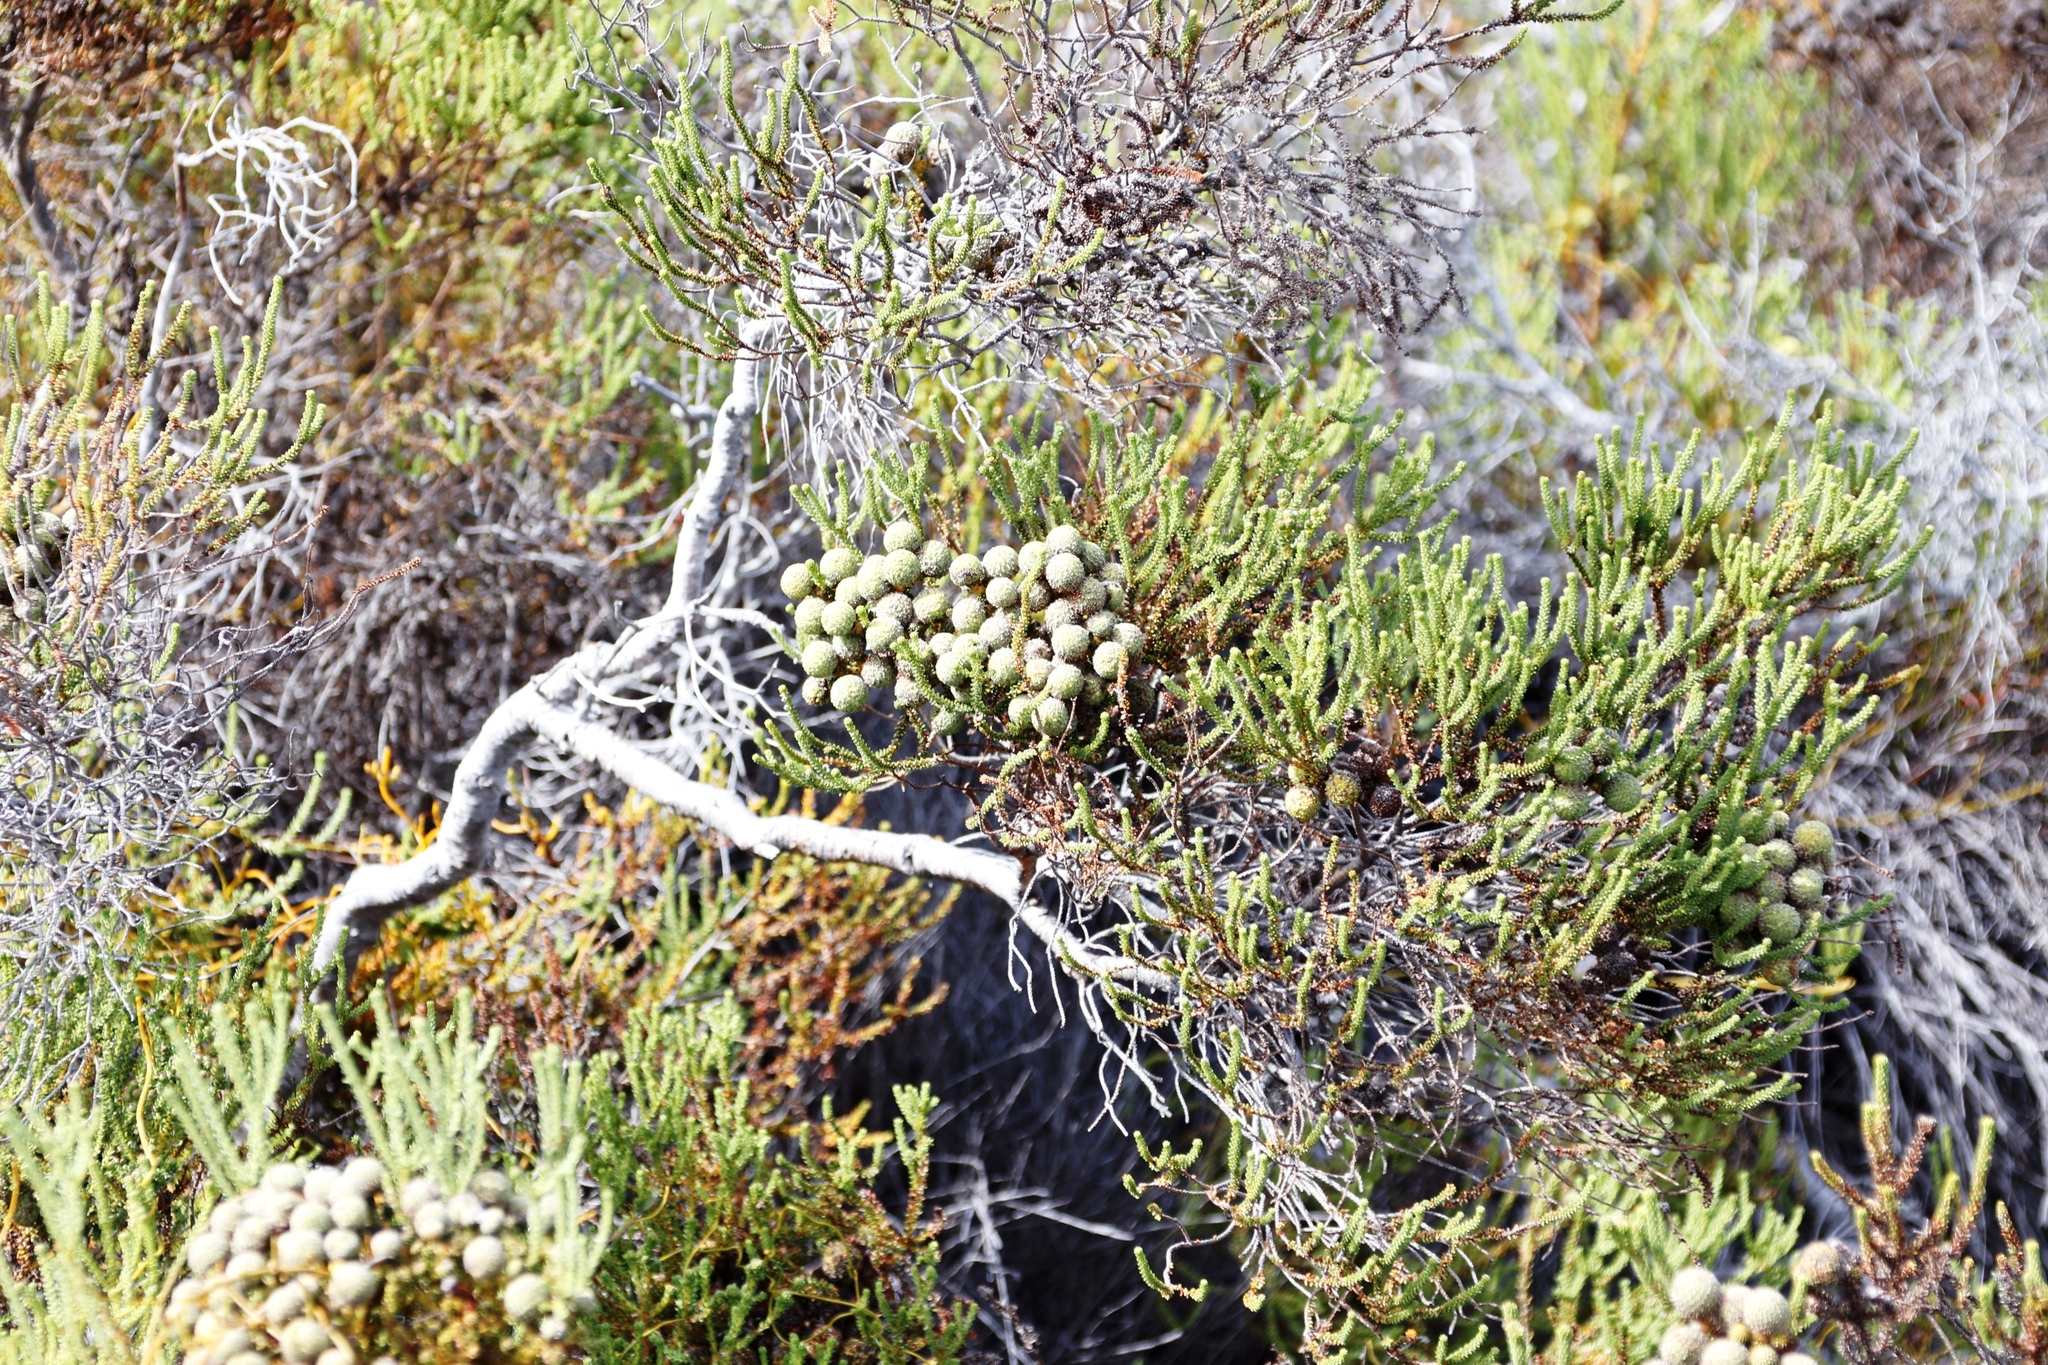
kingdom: Plantae
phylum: Tracheophyta
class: Magnoliopsida
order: Bruniales
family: Bruniaceae
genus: Berzelia
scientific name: Berzelia abrotanoides
